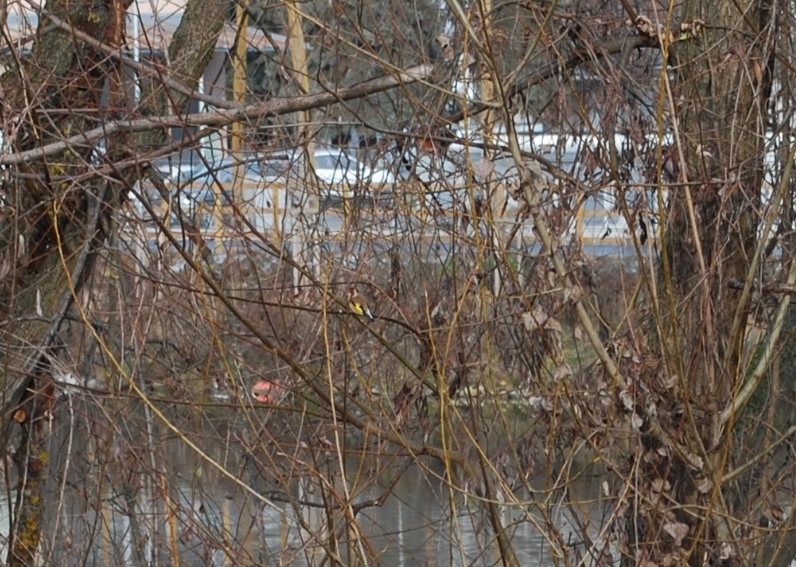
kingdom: Animalia
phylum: Chordata
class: Aves
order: Passeriformes
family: Fringillidae
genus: Carduelis
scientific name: Carduelis carduelis
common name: European goldfinch
